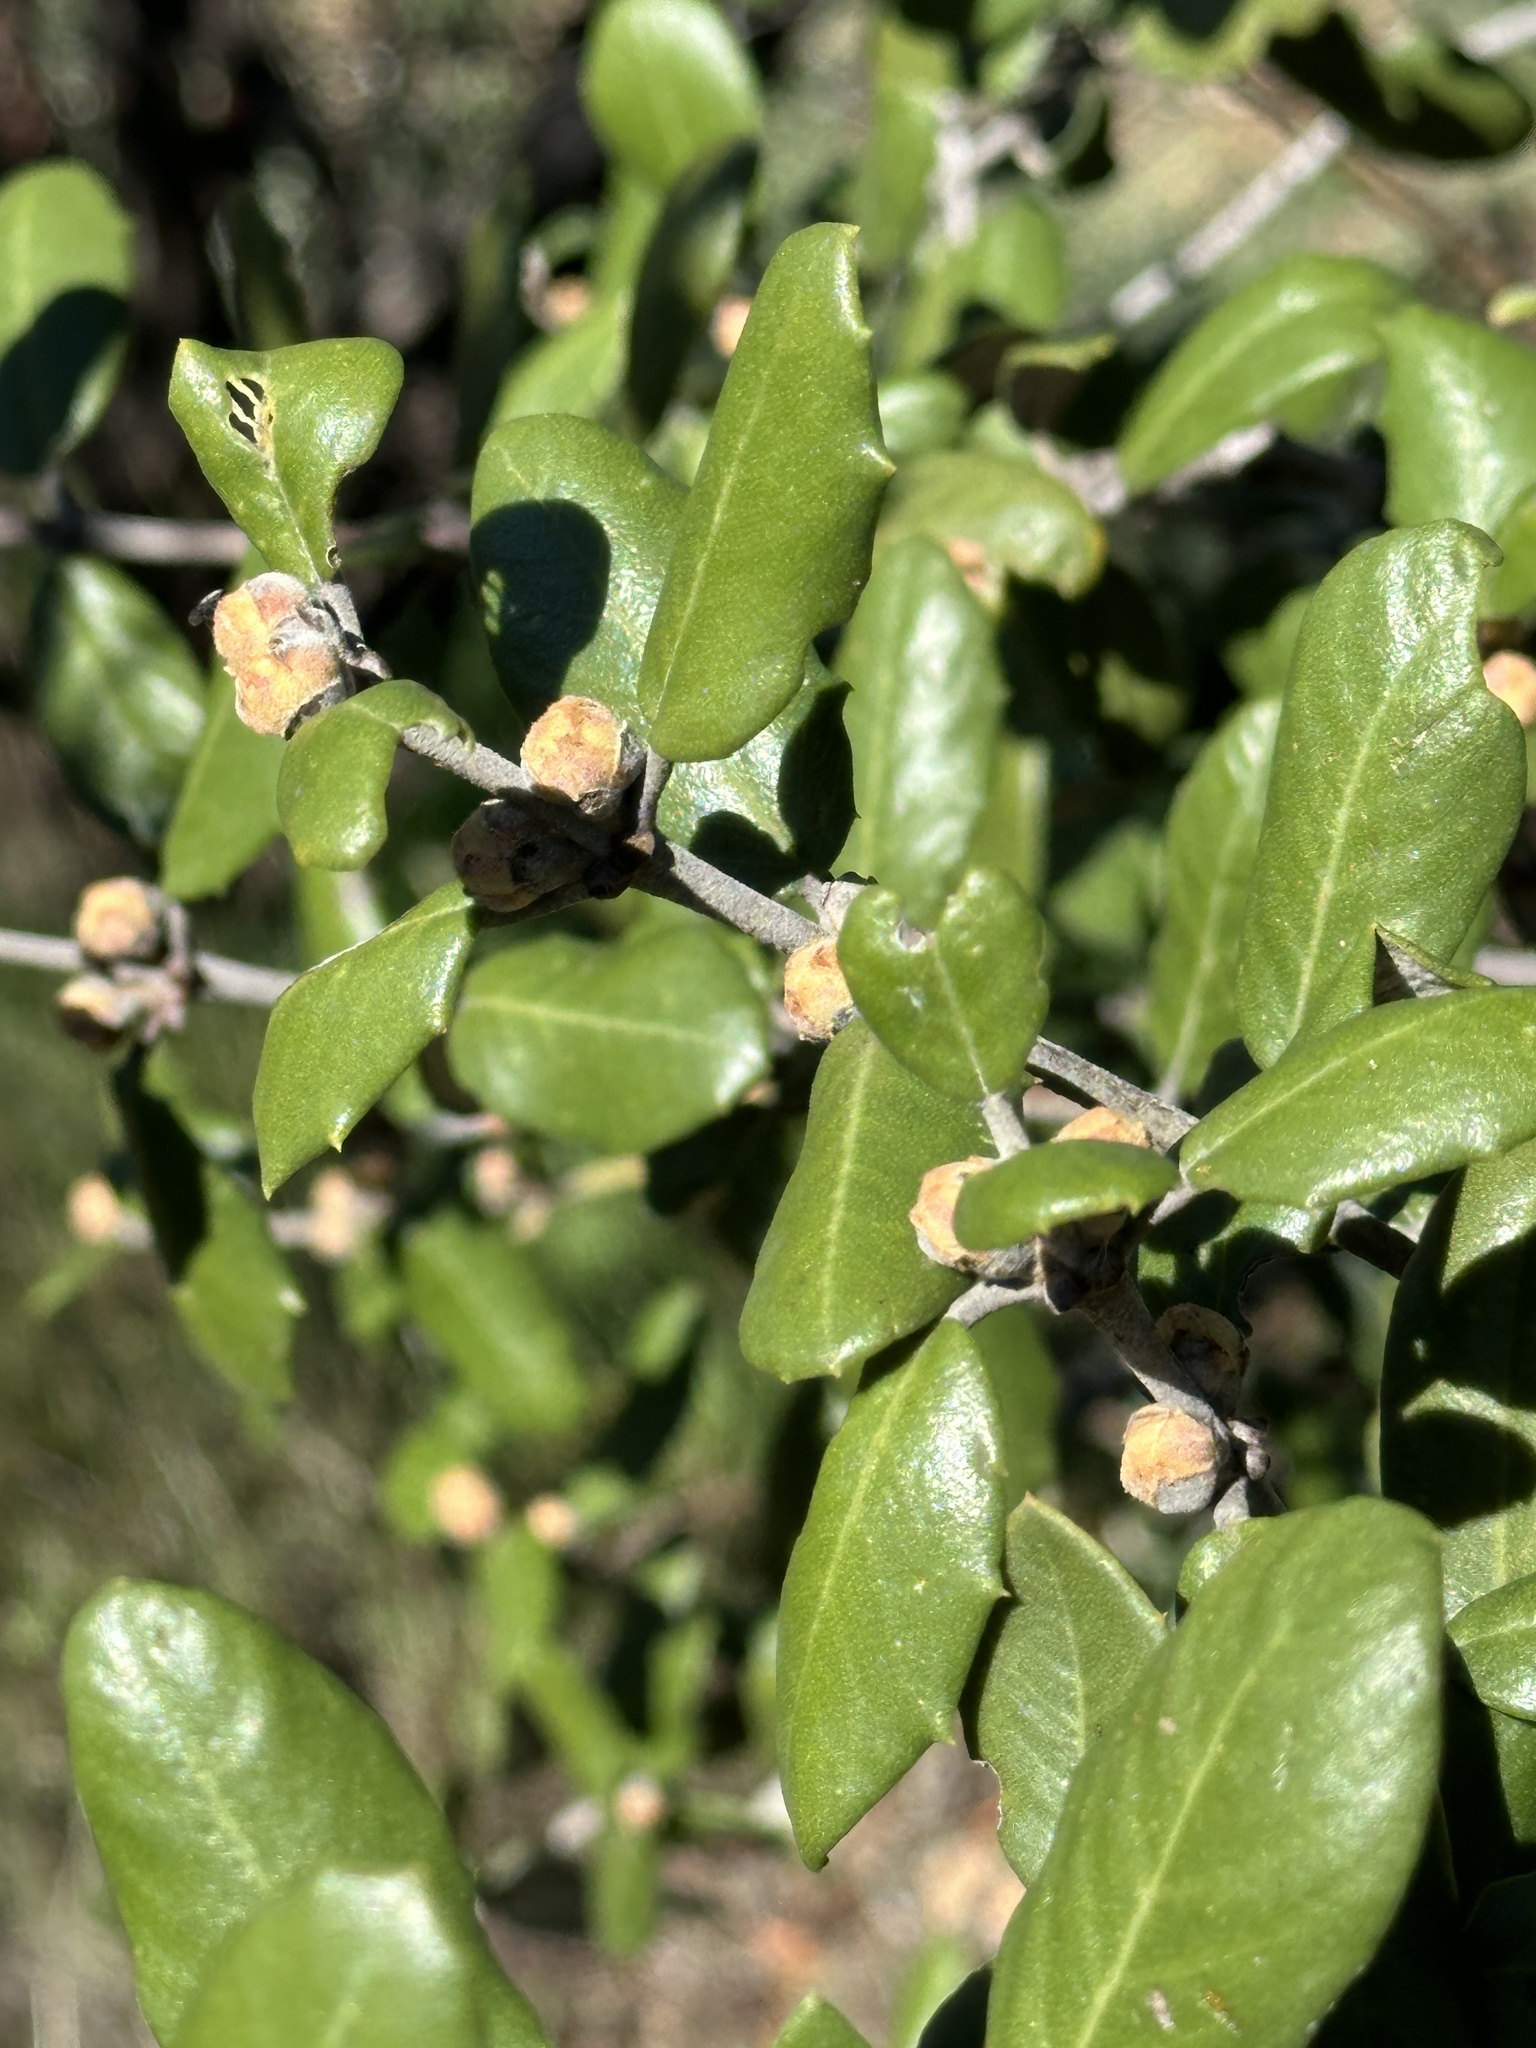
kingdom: Plantae
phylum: Tracheophyta
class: Magnoliopsida
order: Rosales
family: Rhamnaceae
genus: Ceanothus
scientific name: Ceanothus crassifolius
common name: Hoaryleaf ceanothus
